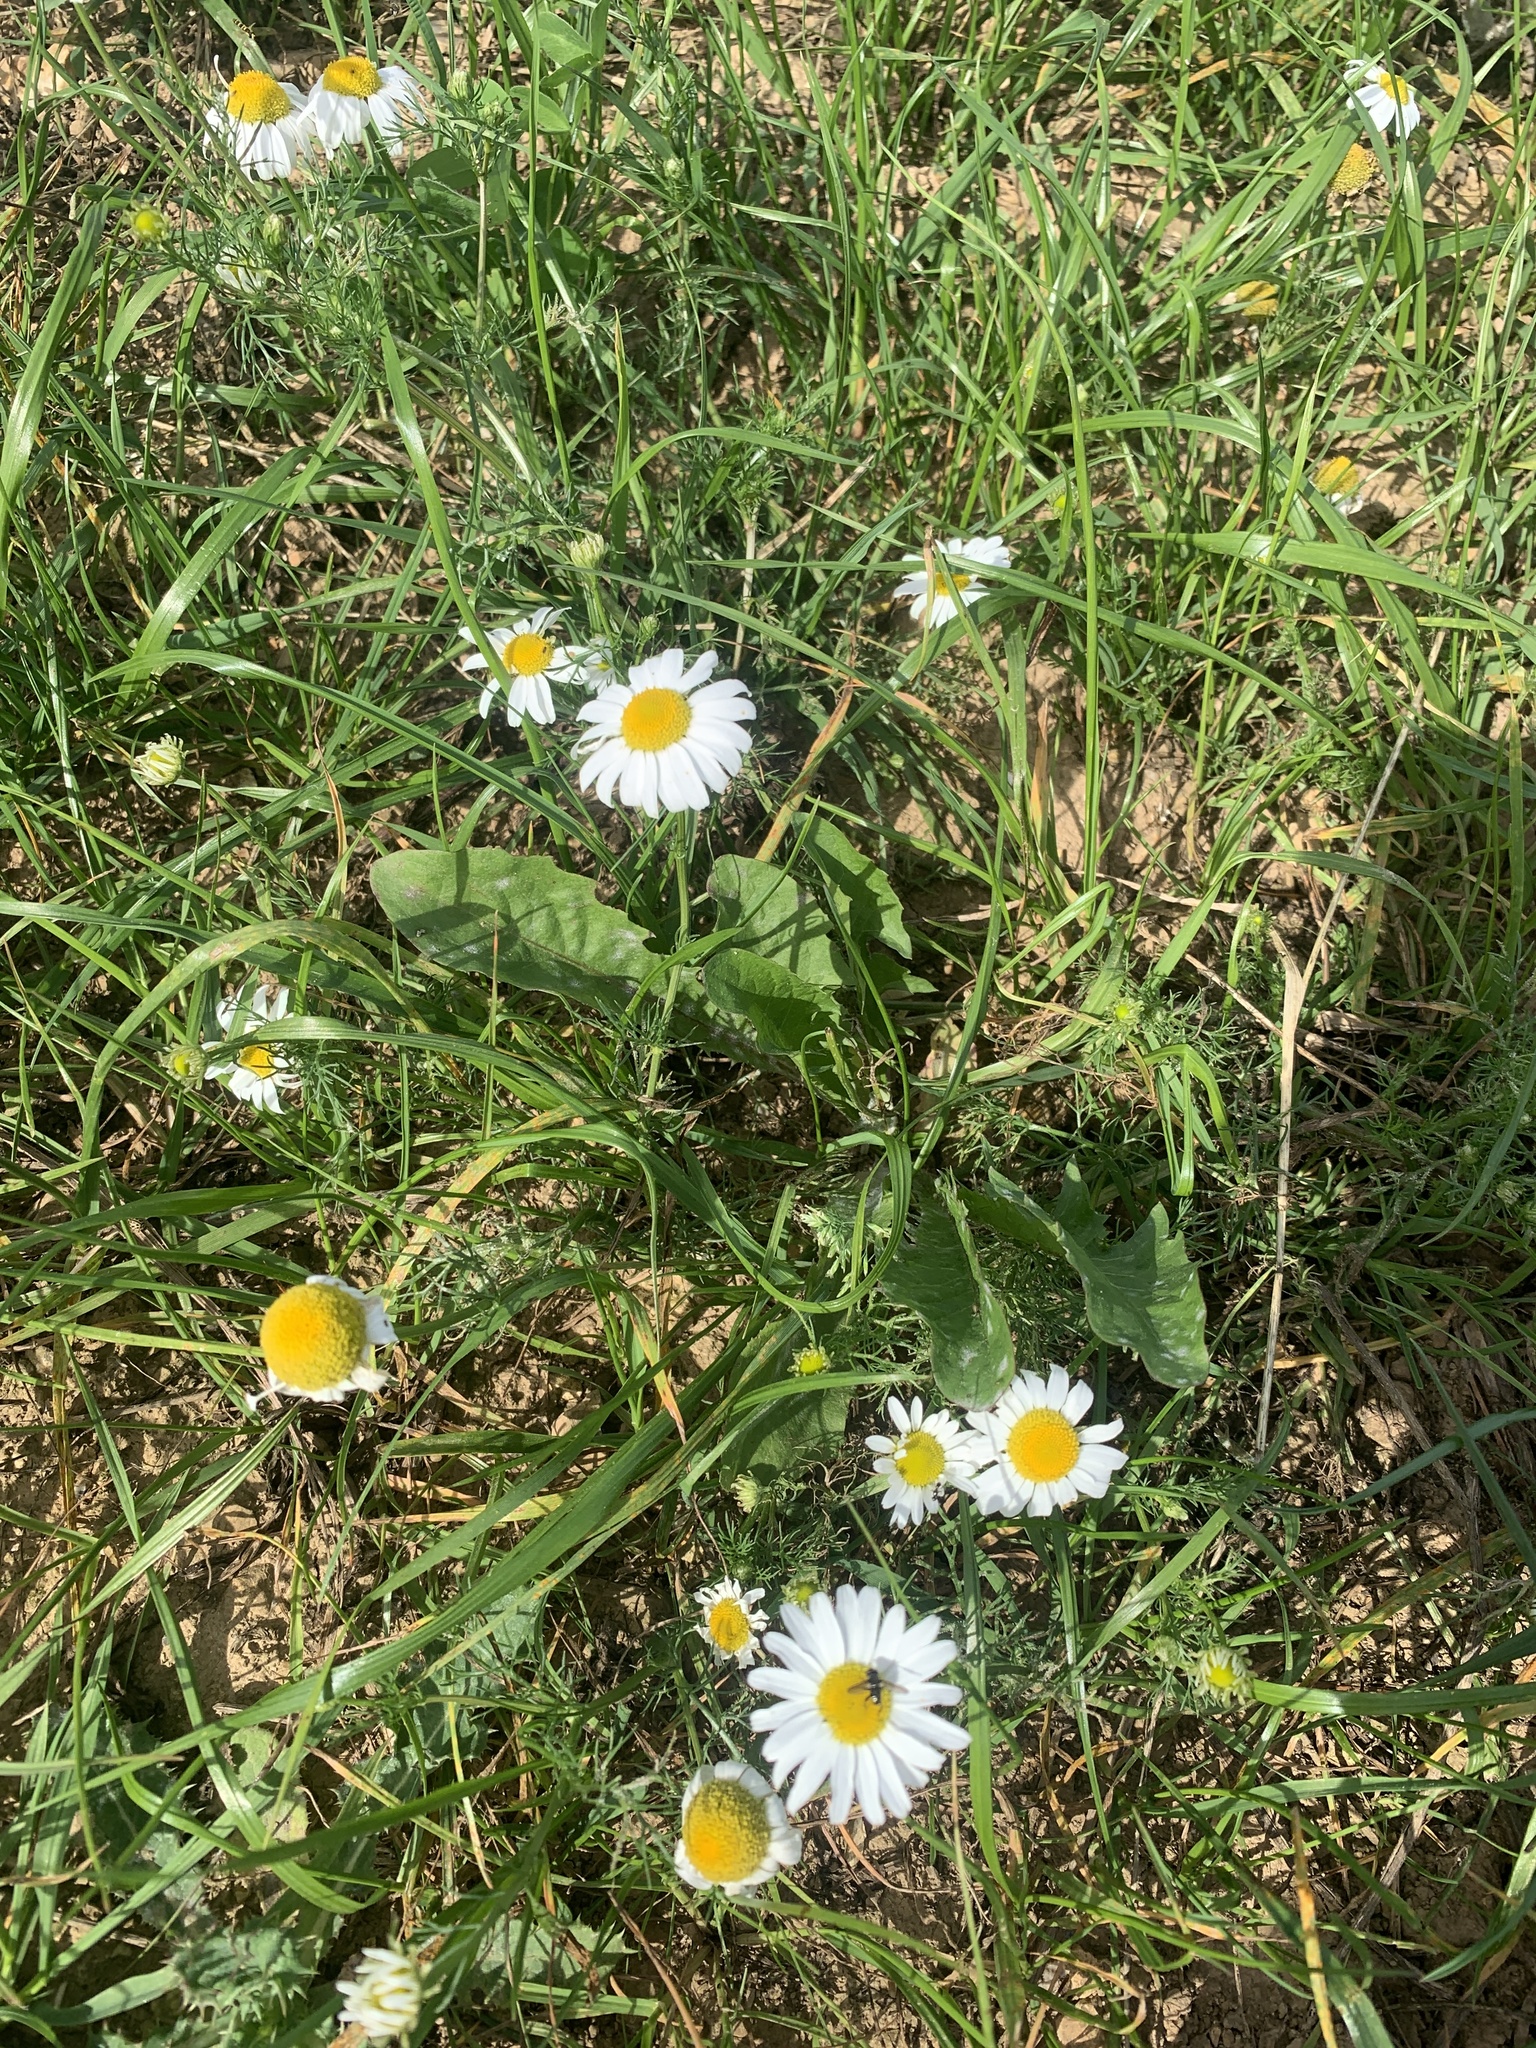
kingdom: Plantae
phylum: Tracheophyta
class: Magnoliopsida
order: Asterales
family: Asteraceae
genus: Bellis
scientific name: Bellis perennis
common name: Lawndaisy
